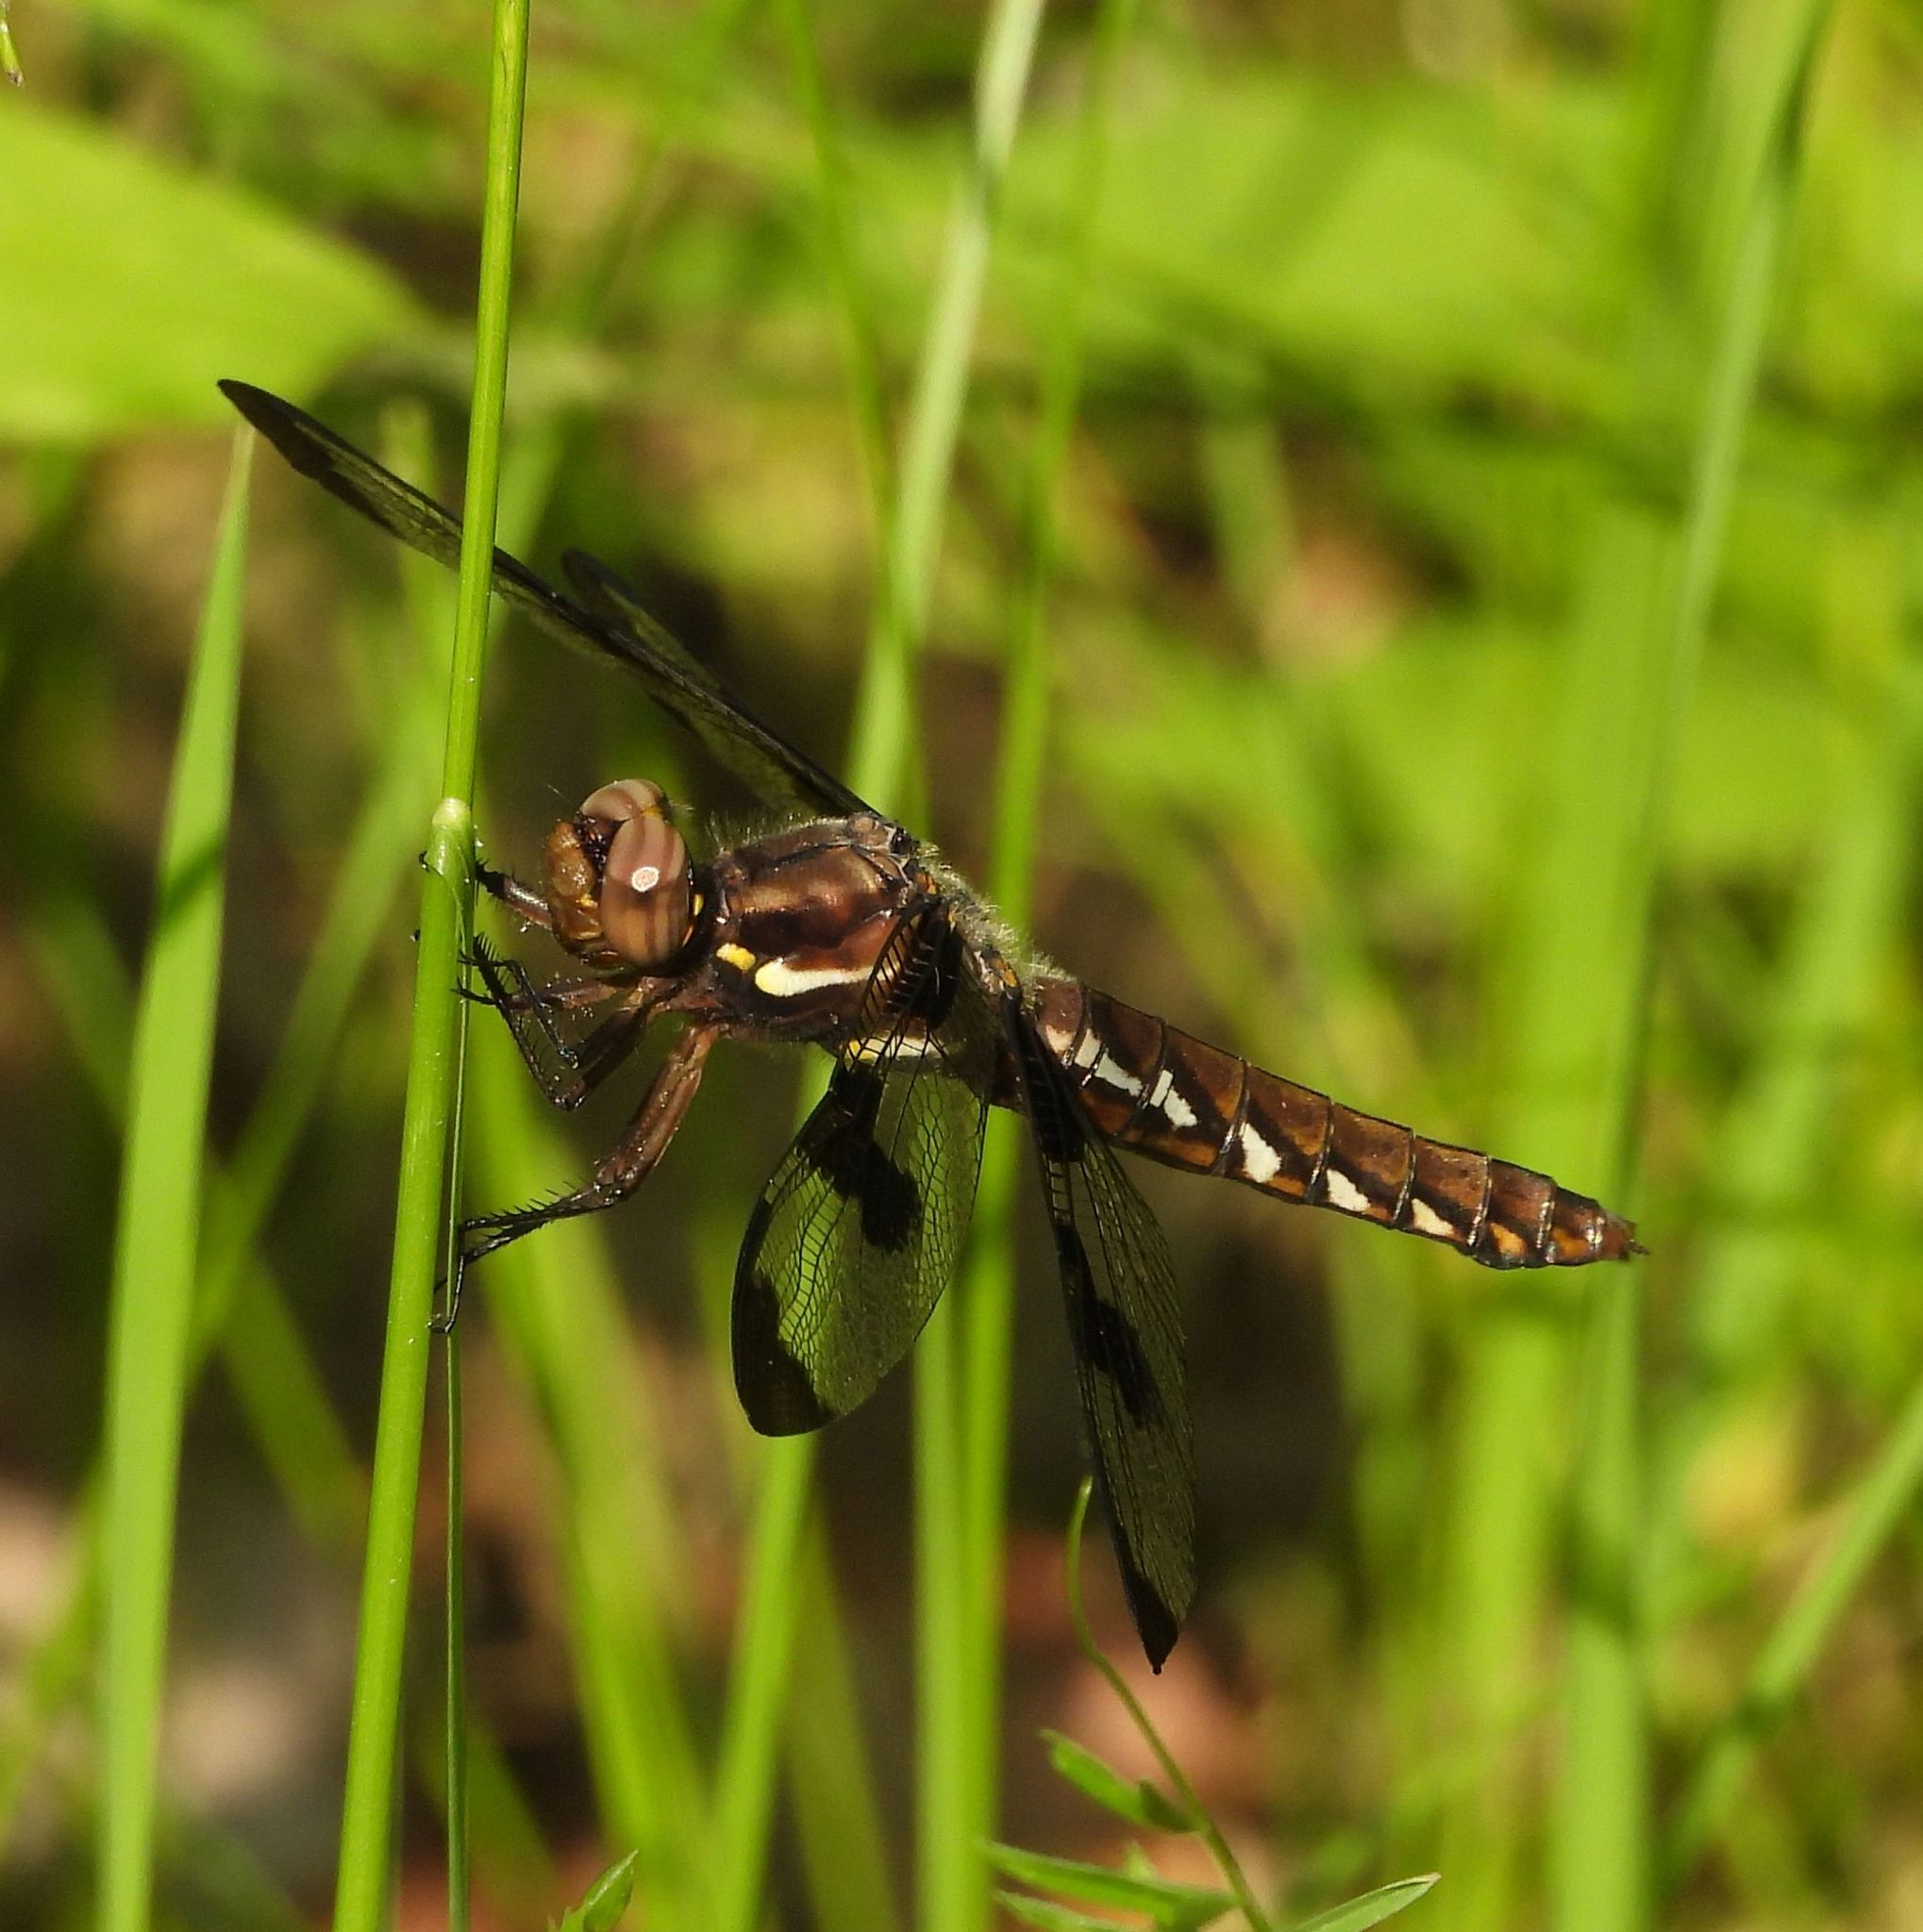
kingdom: Animalia
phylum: Arthropoda
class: Insecta
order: Odonata
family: Libellulidae
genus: Plathemis
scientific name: Plathemis lydia
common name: Common whitetail
